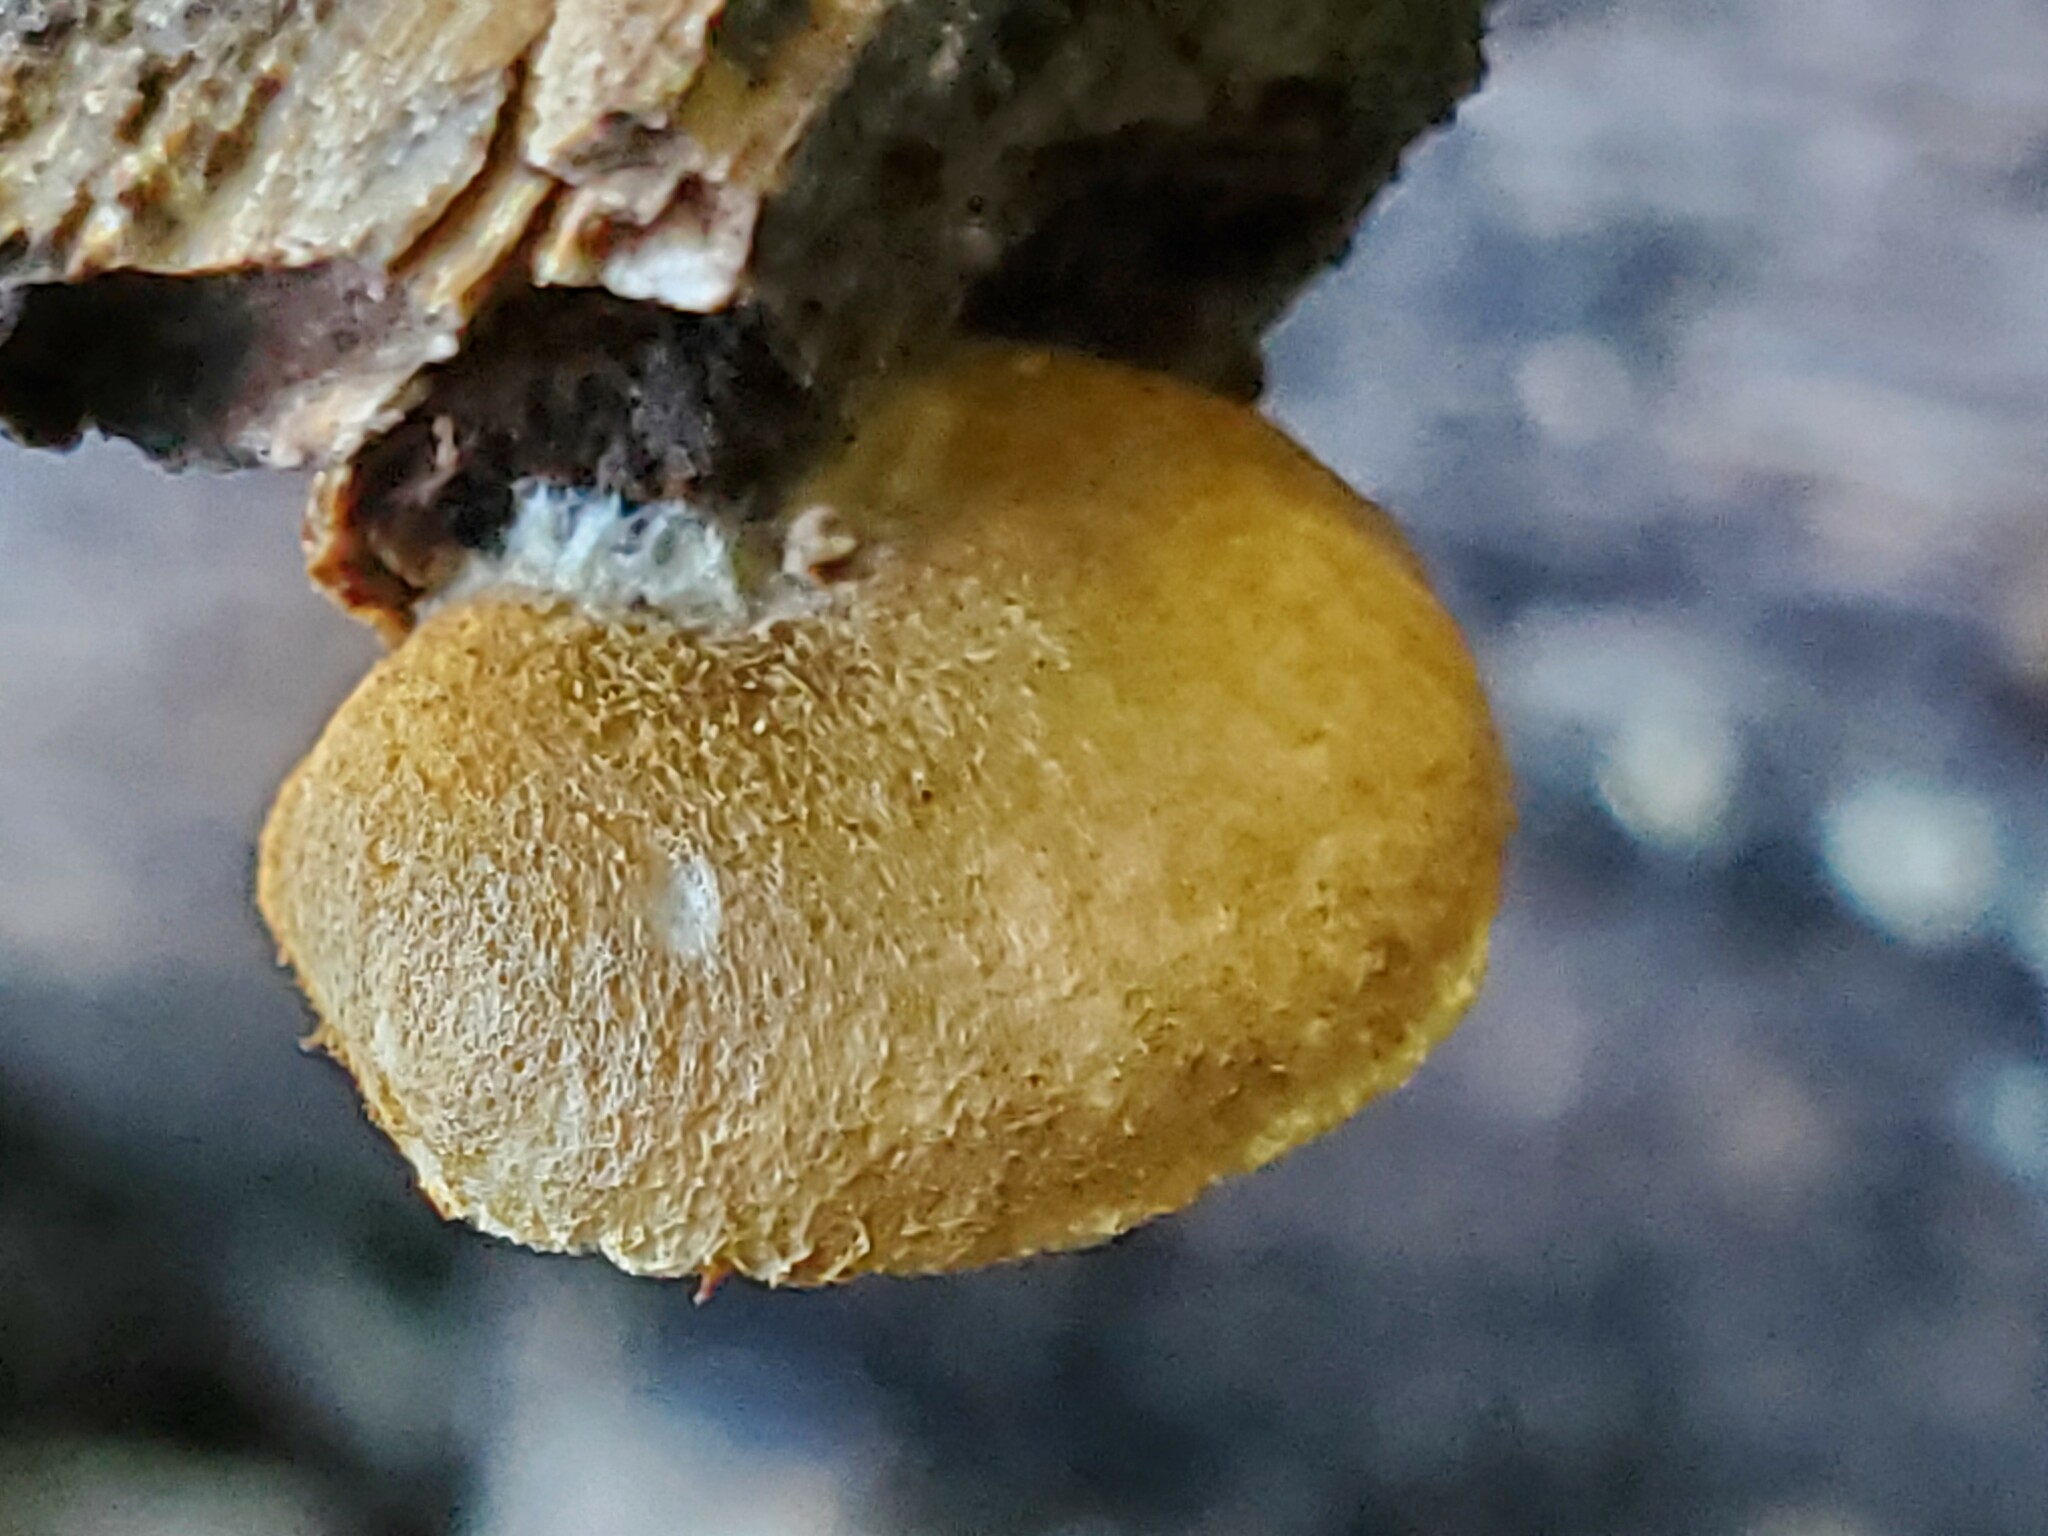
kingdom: Fungi
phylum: Basidiomycota
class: Agaricomycetes
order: Agaricales
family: Crepidotaceae
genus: Crepidotus
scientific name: Crepidotus calolepis
